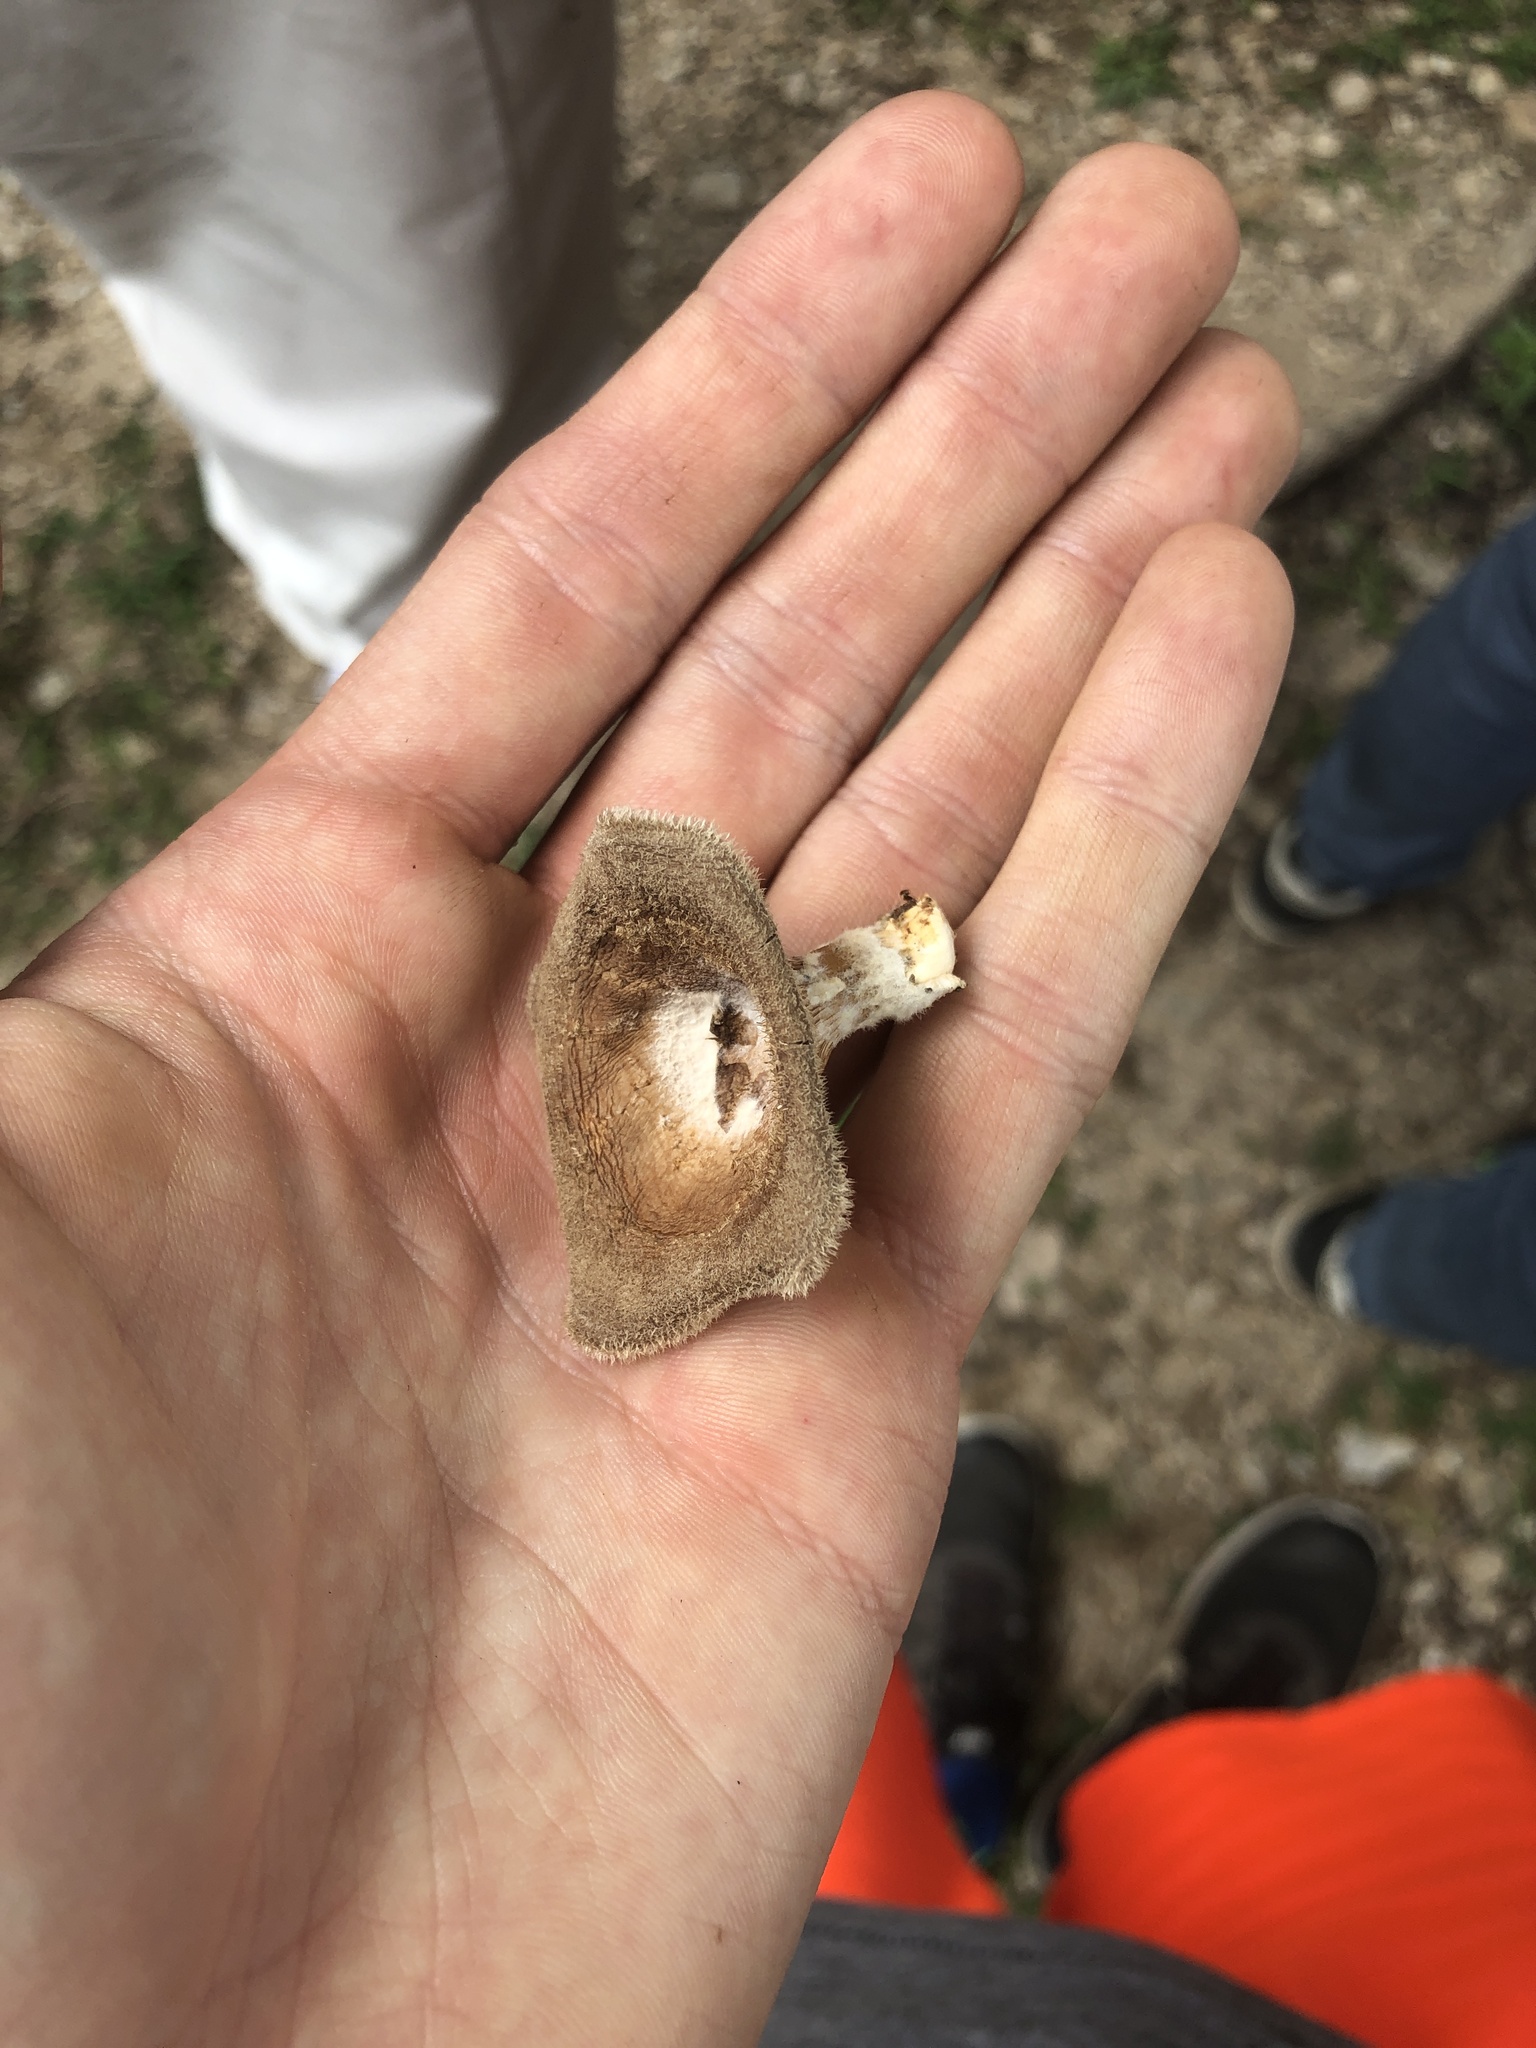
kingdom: Fungi
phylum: Basidiomycota
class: Agaricomycetes
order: Polyporales
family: Panaceae
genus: Panus
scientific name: Panus neostrigosus
